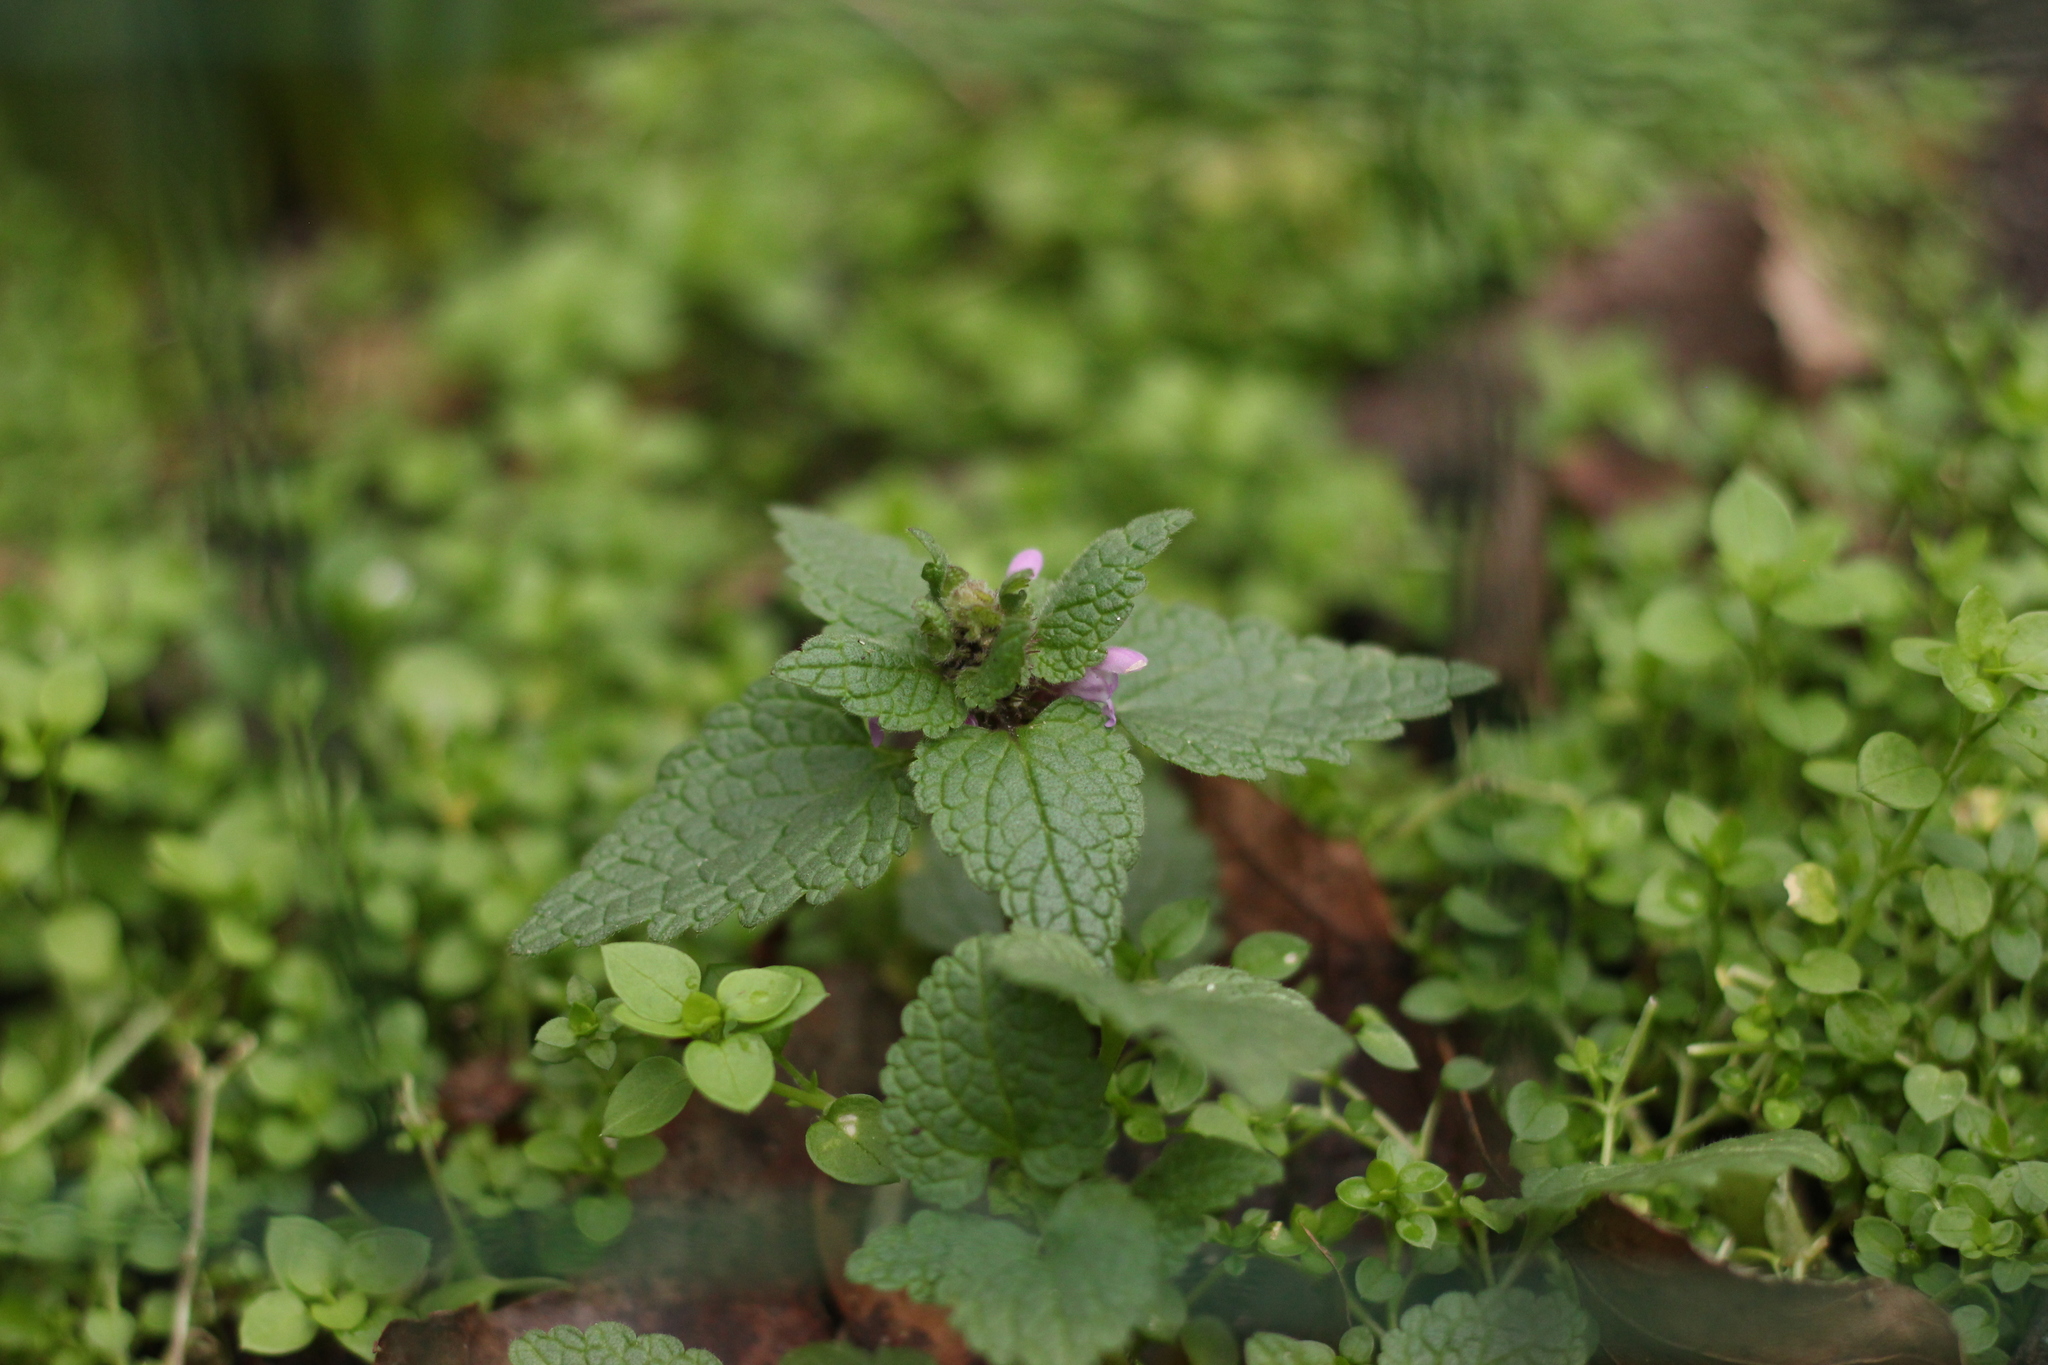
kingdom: Plantae
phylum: Tracheophyta
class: Magnoliopsida
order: Lamiales
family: Lamiaceae
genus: Lamium
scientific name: Lamium purpureum
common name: Red dead-nettle
